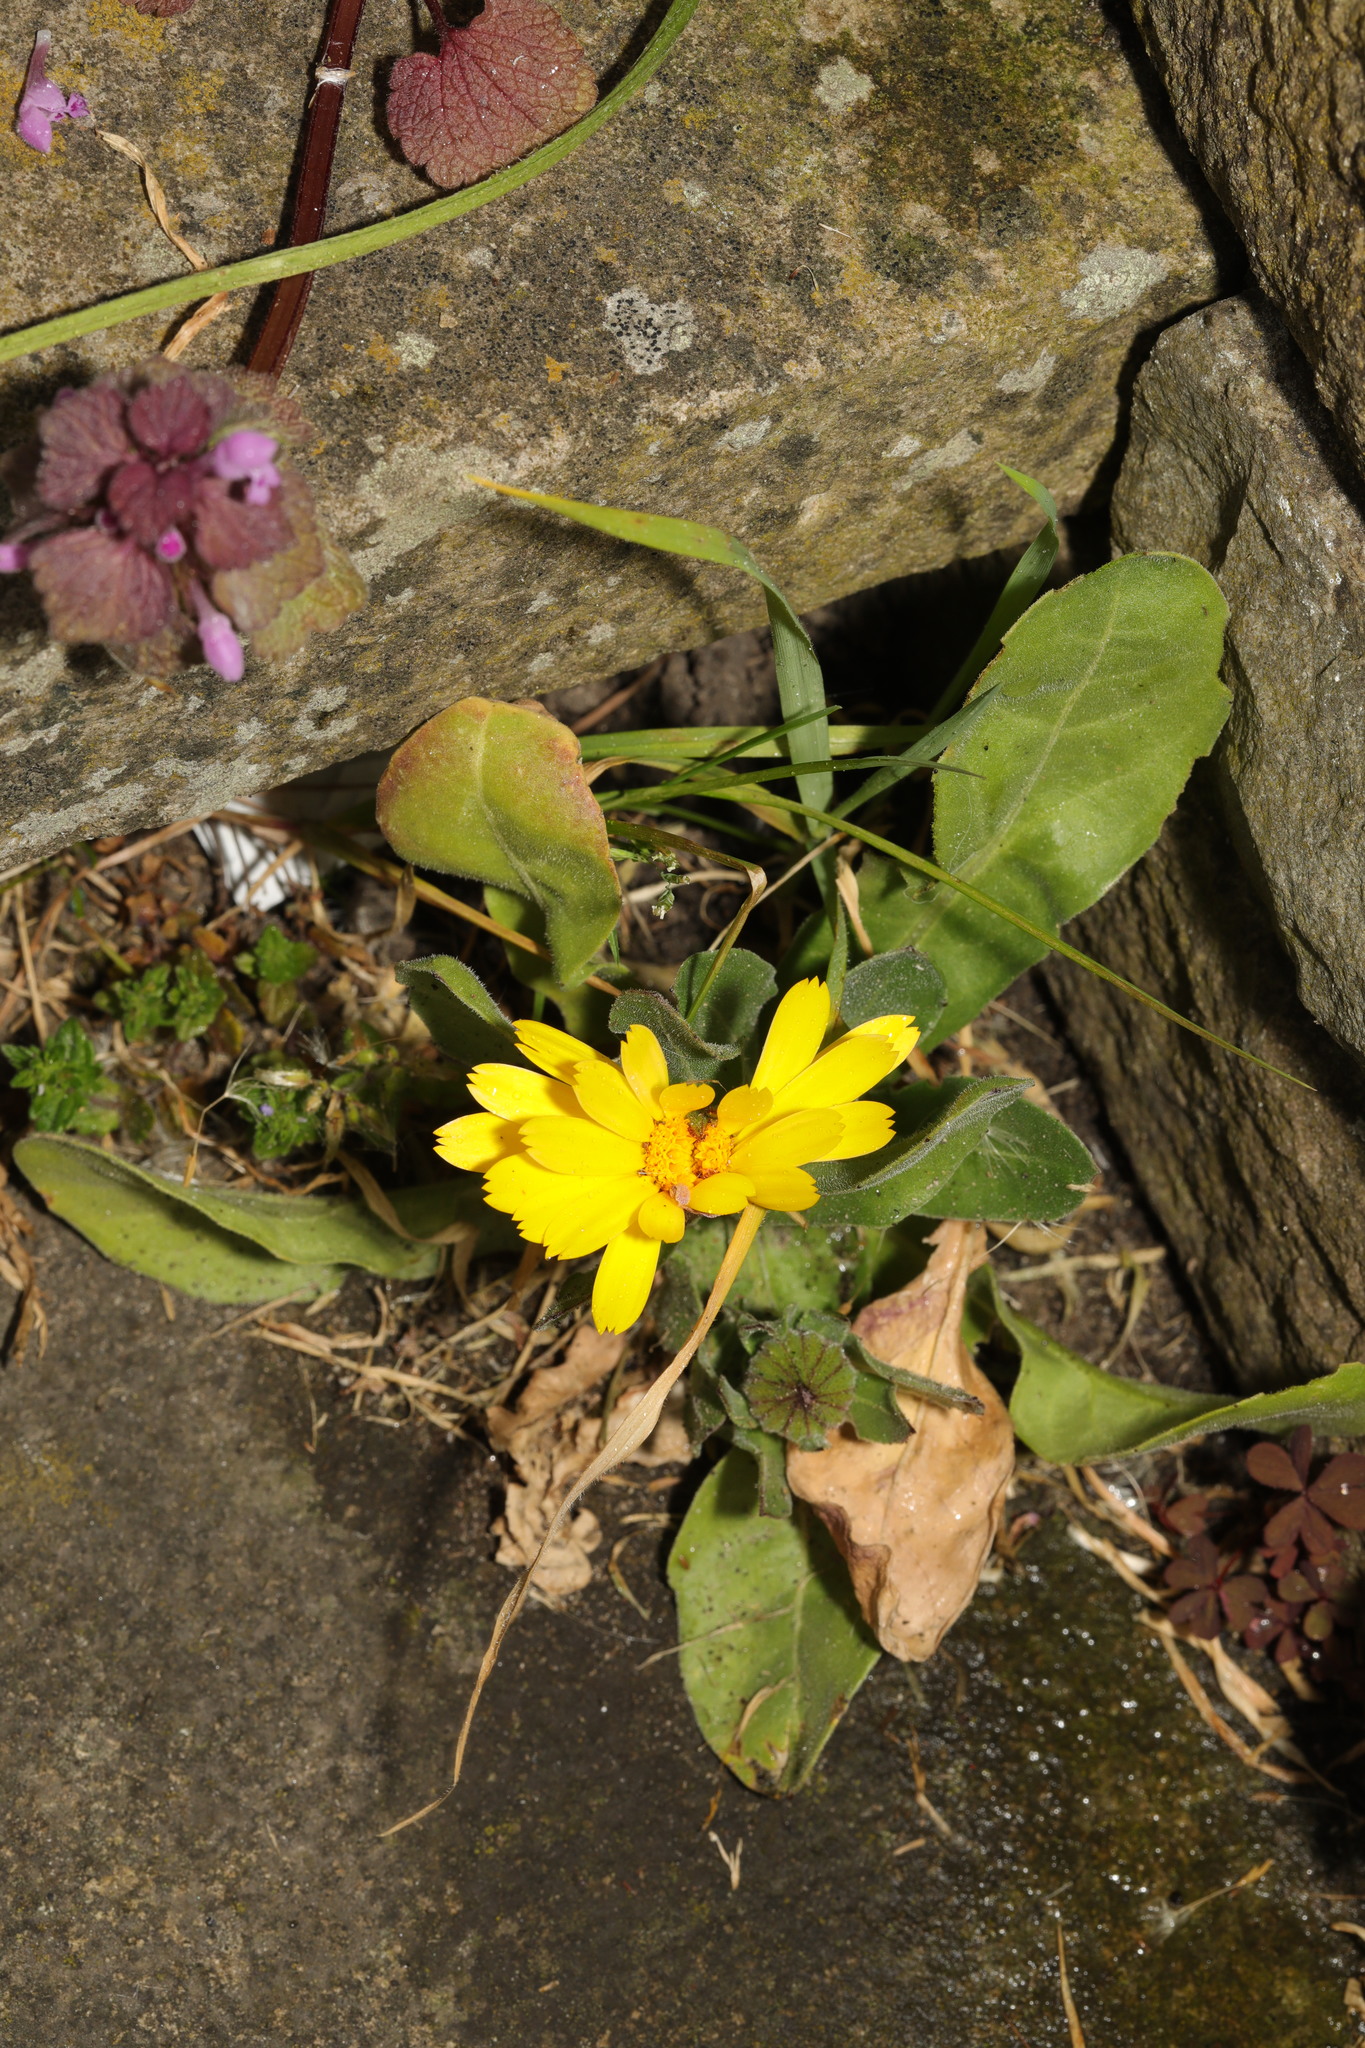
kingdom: Plantae
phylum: Tracheophyta
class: Magnoliopsida
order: Asterales
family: Asteraceae
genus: Calendula
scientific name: Calendula officinalis
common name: Pot marigold
